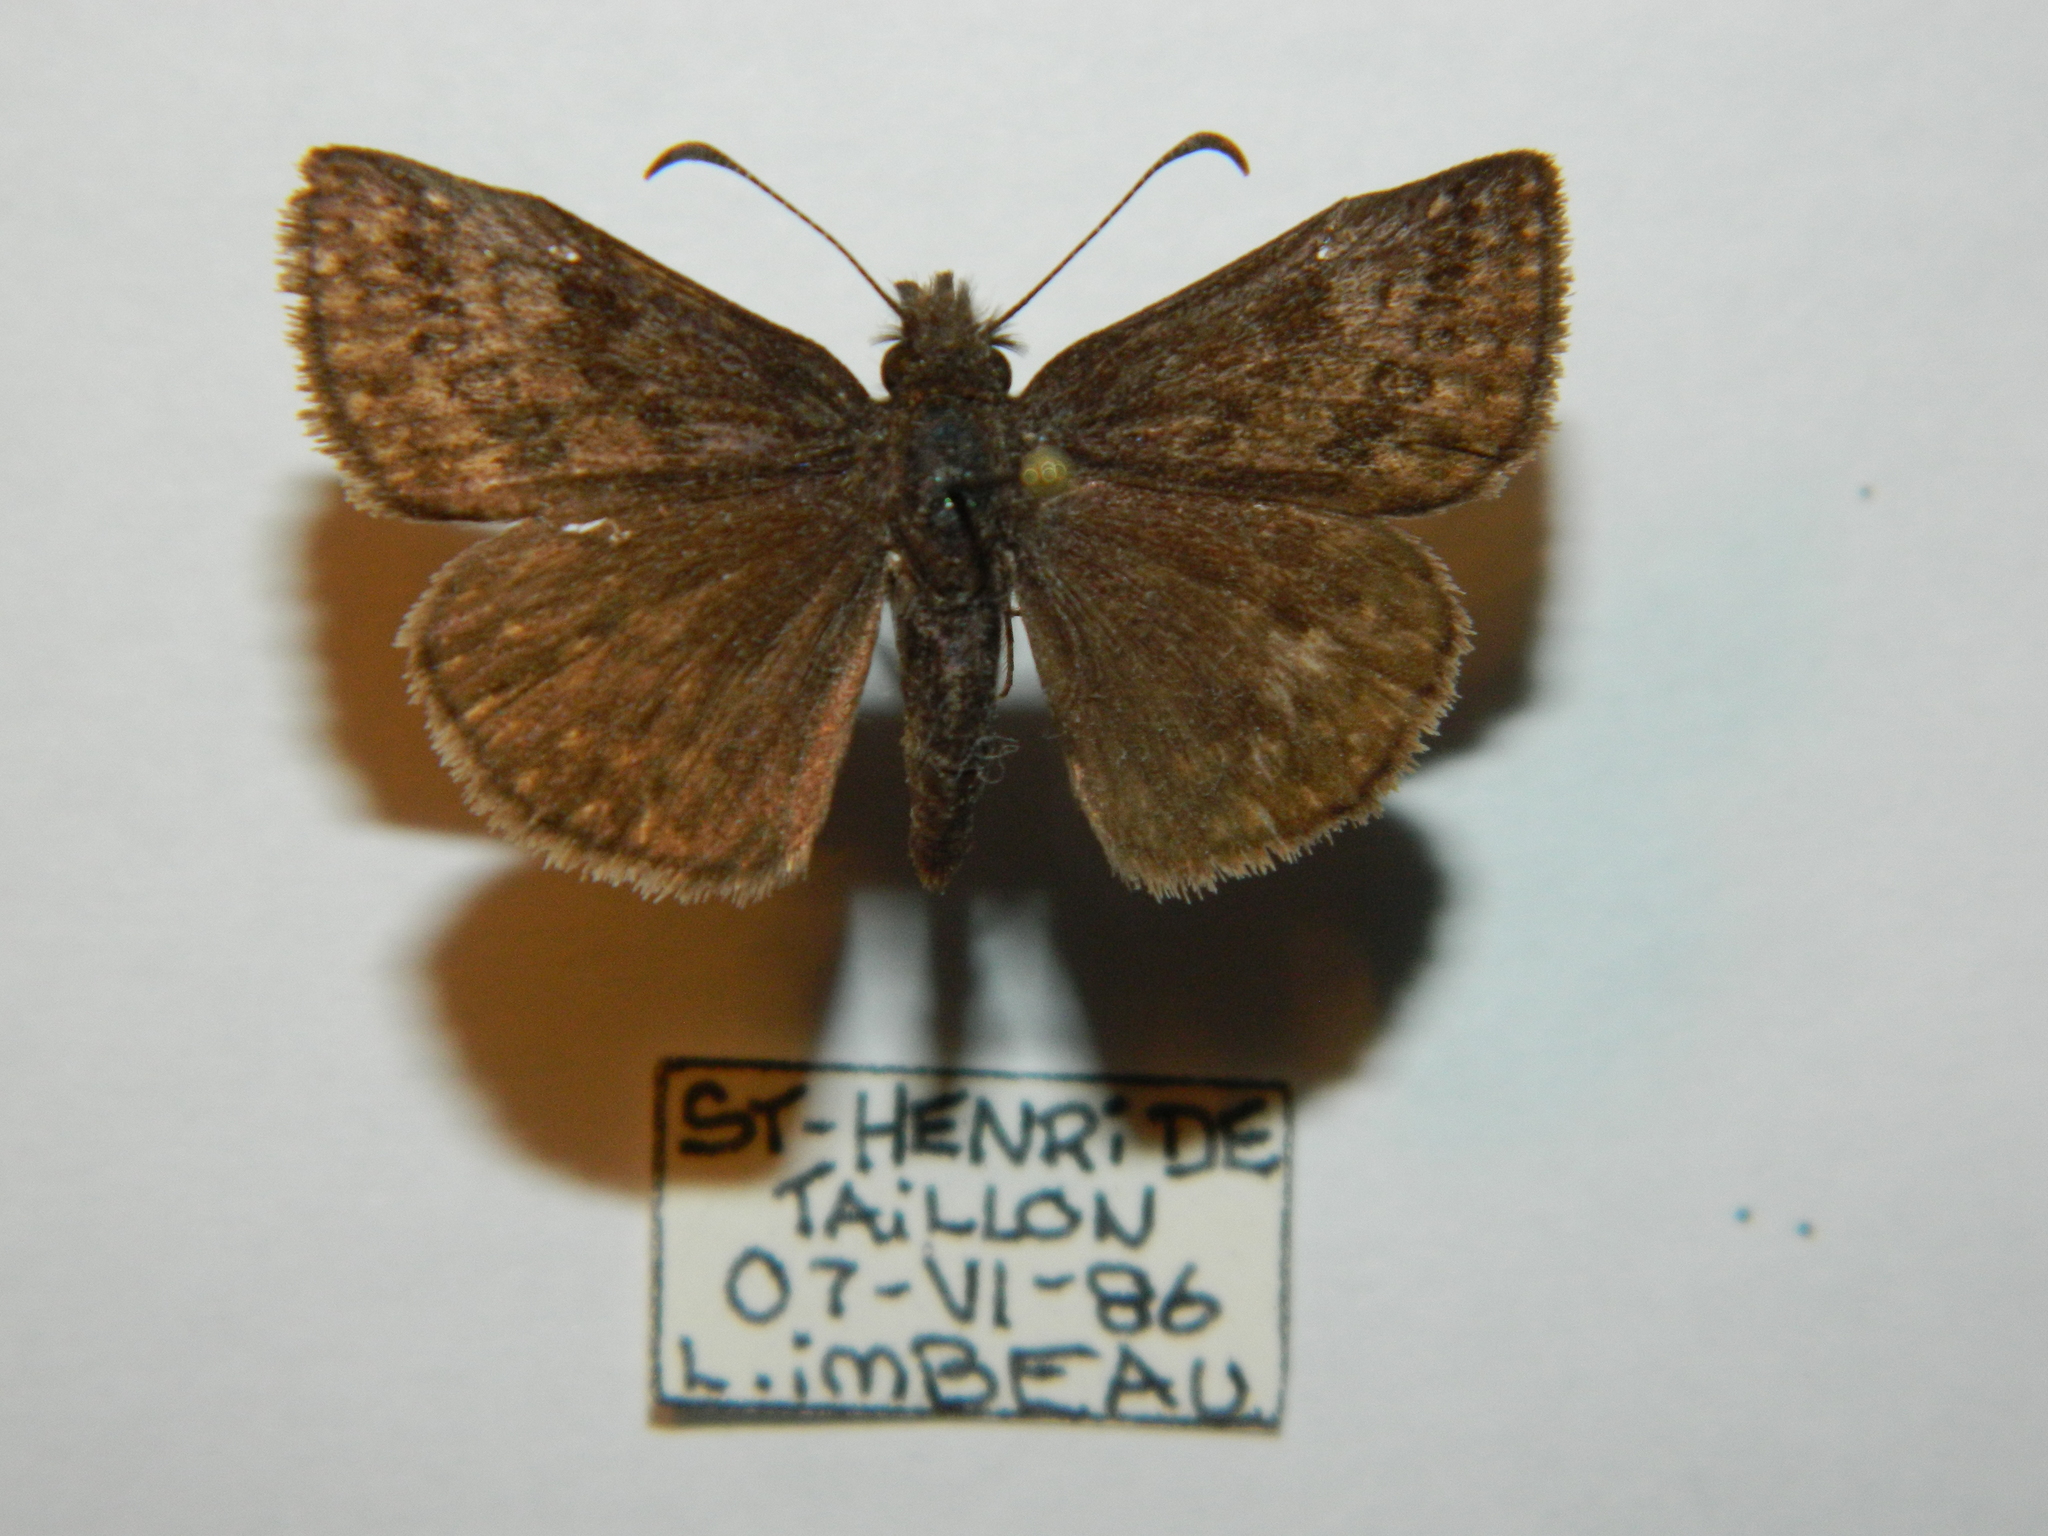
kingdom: Animalia
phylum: Arthropoda
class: Insecta
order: Lepidoptera
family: Hesperiidae
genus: Erynnis
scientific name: Erynnis icelus
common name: Dreamy duskywing
